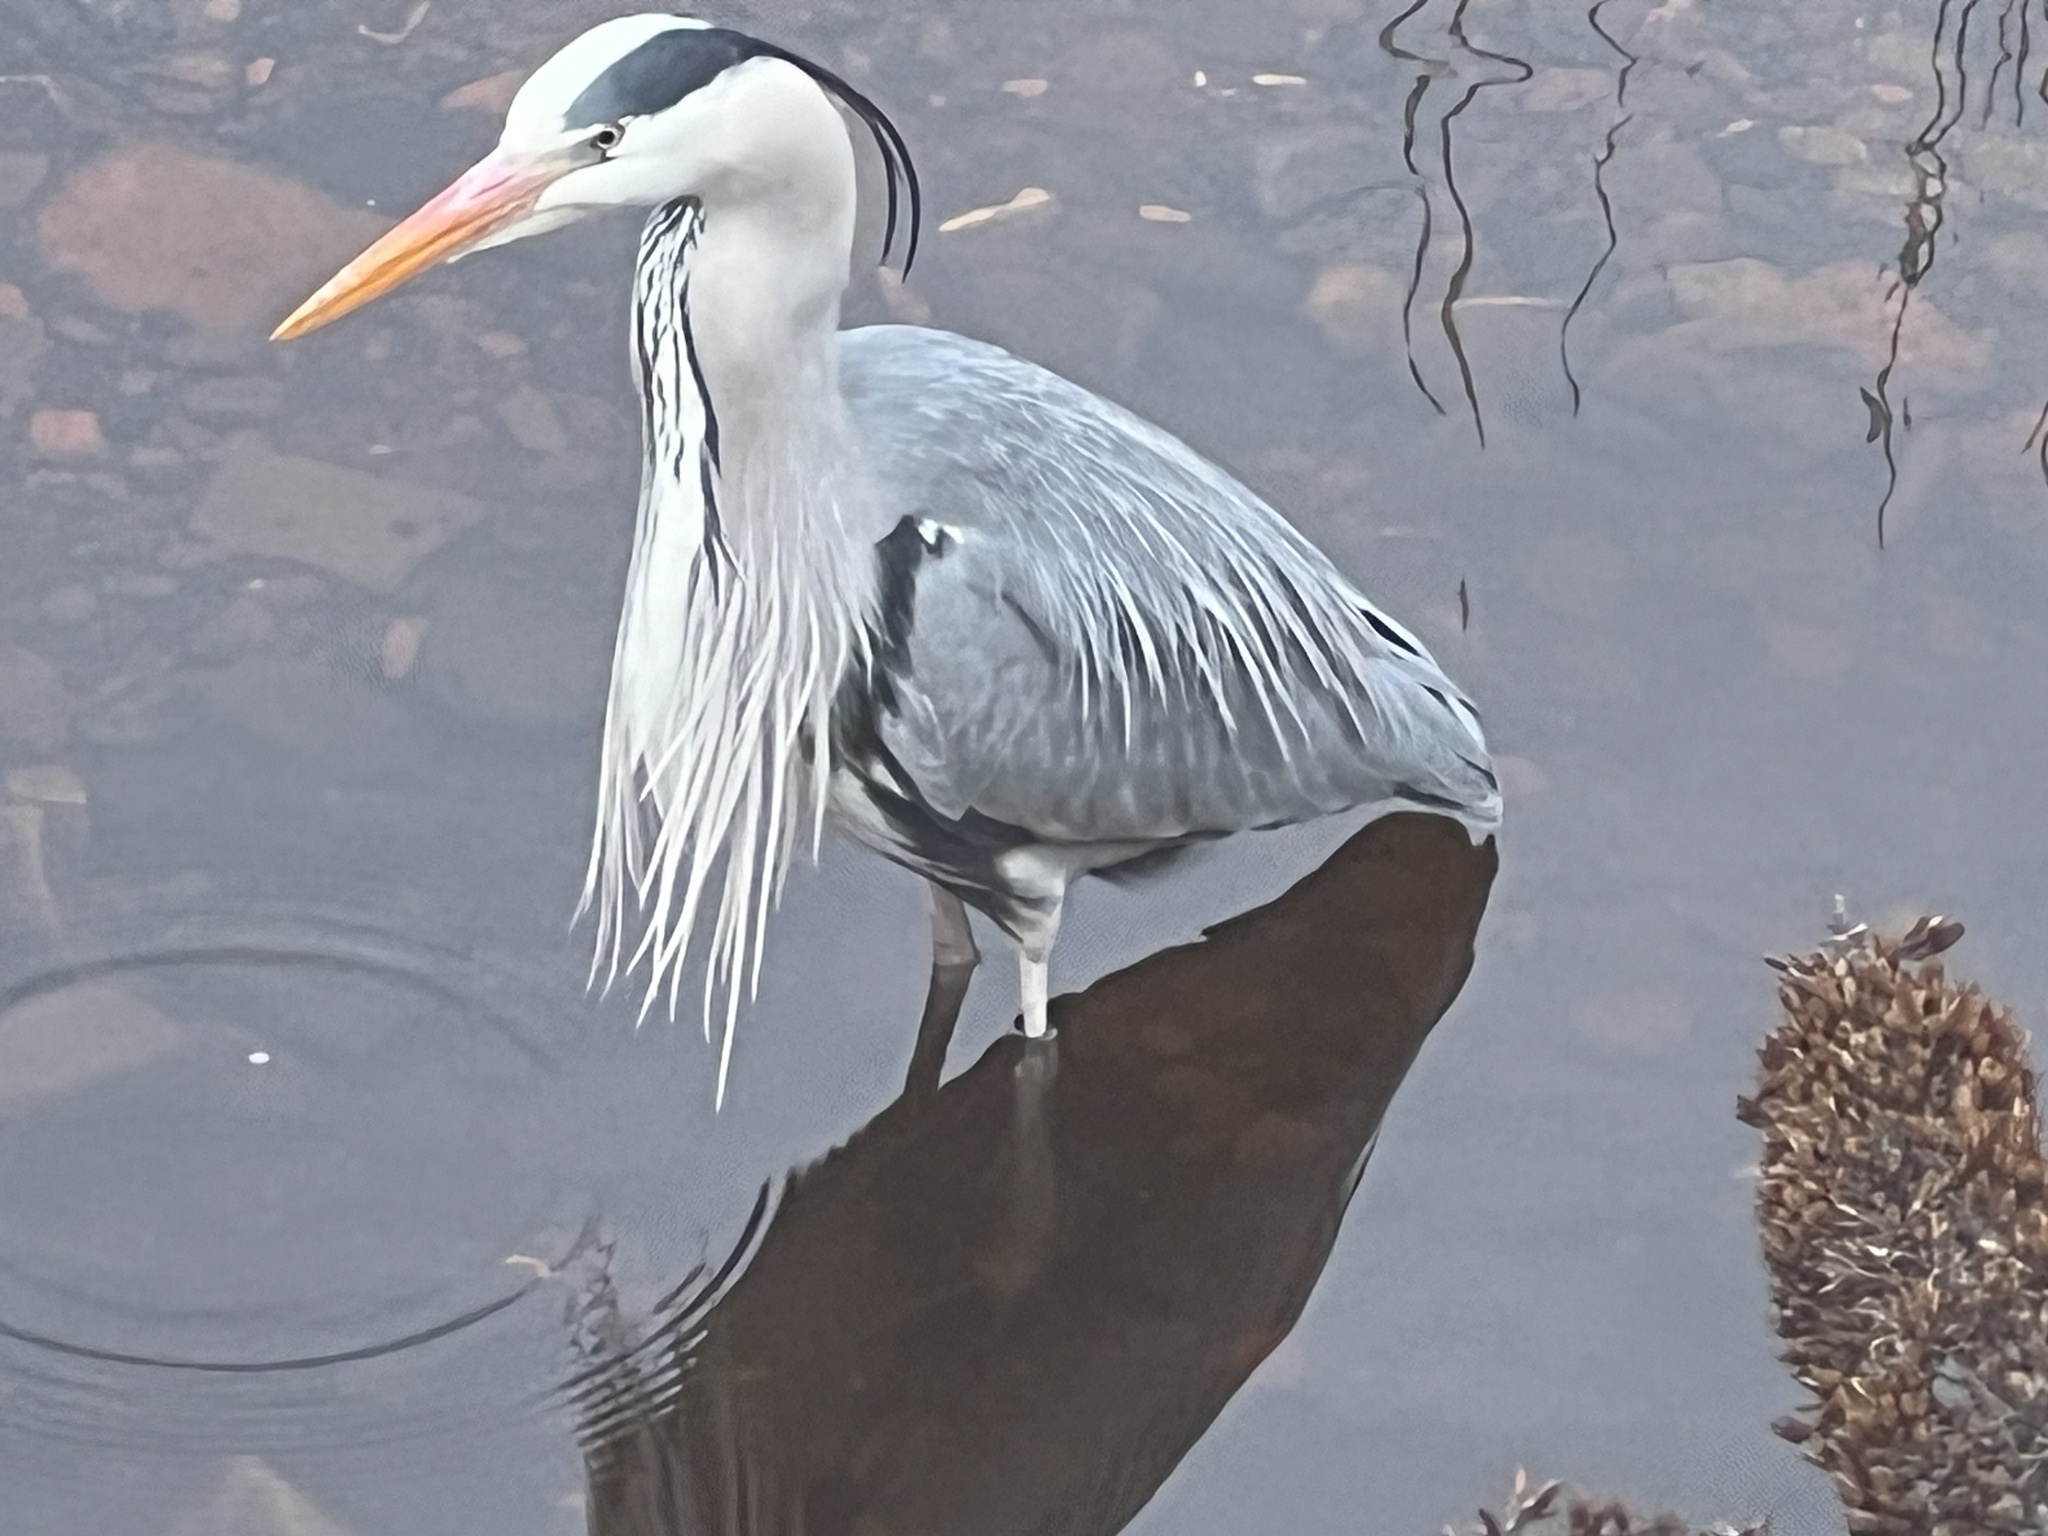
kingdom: Animalia
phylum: Chordata
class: Aves
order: Pelecaniformes
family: Ardeidae
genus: Ardea
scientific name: Ardea cinerea
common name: Grey heron
